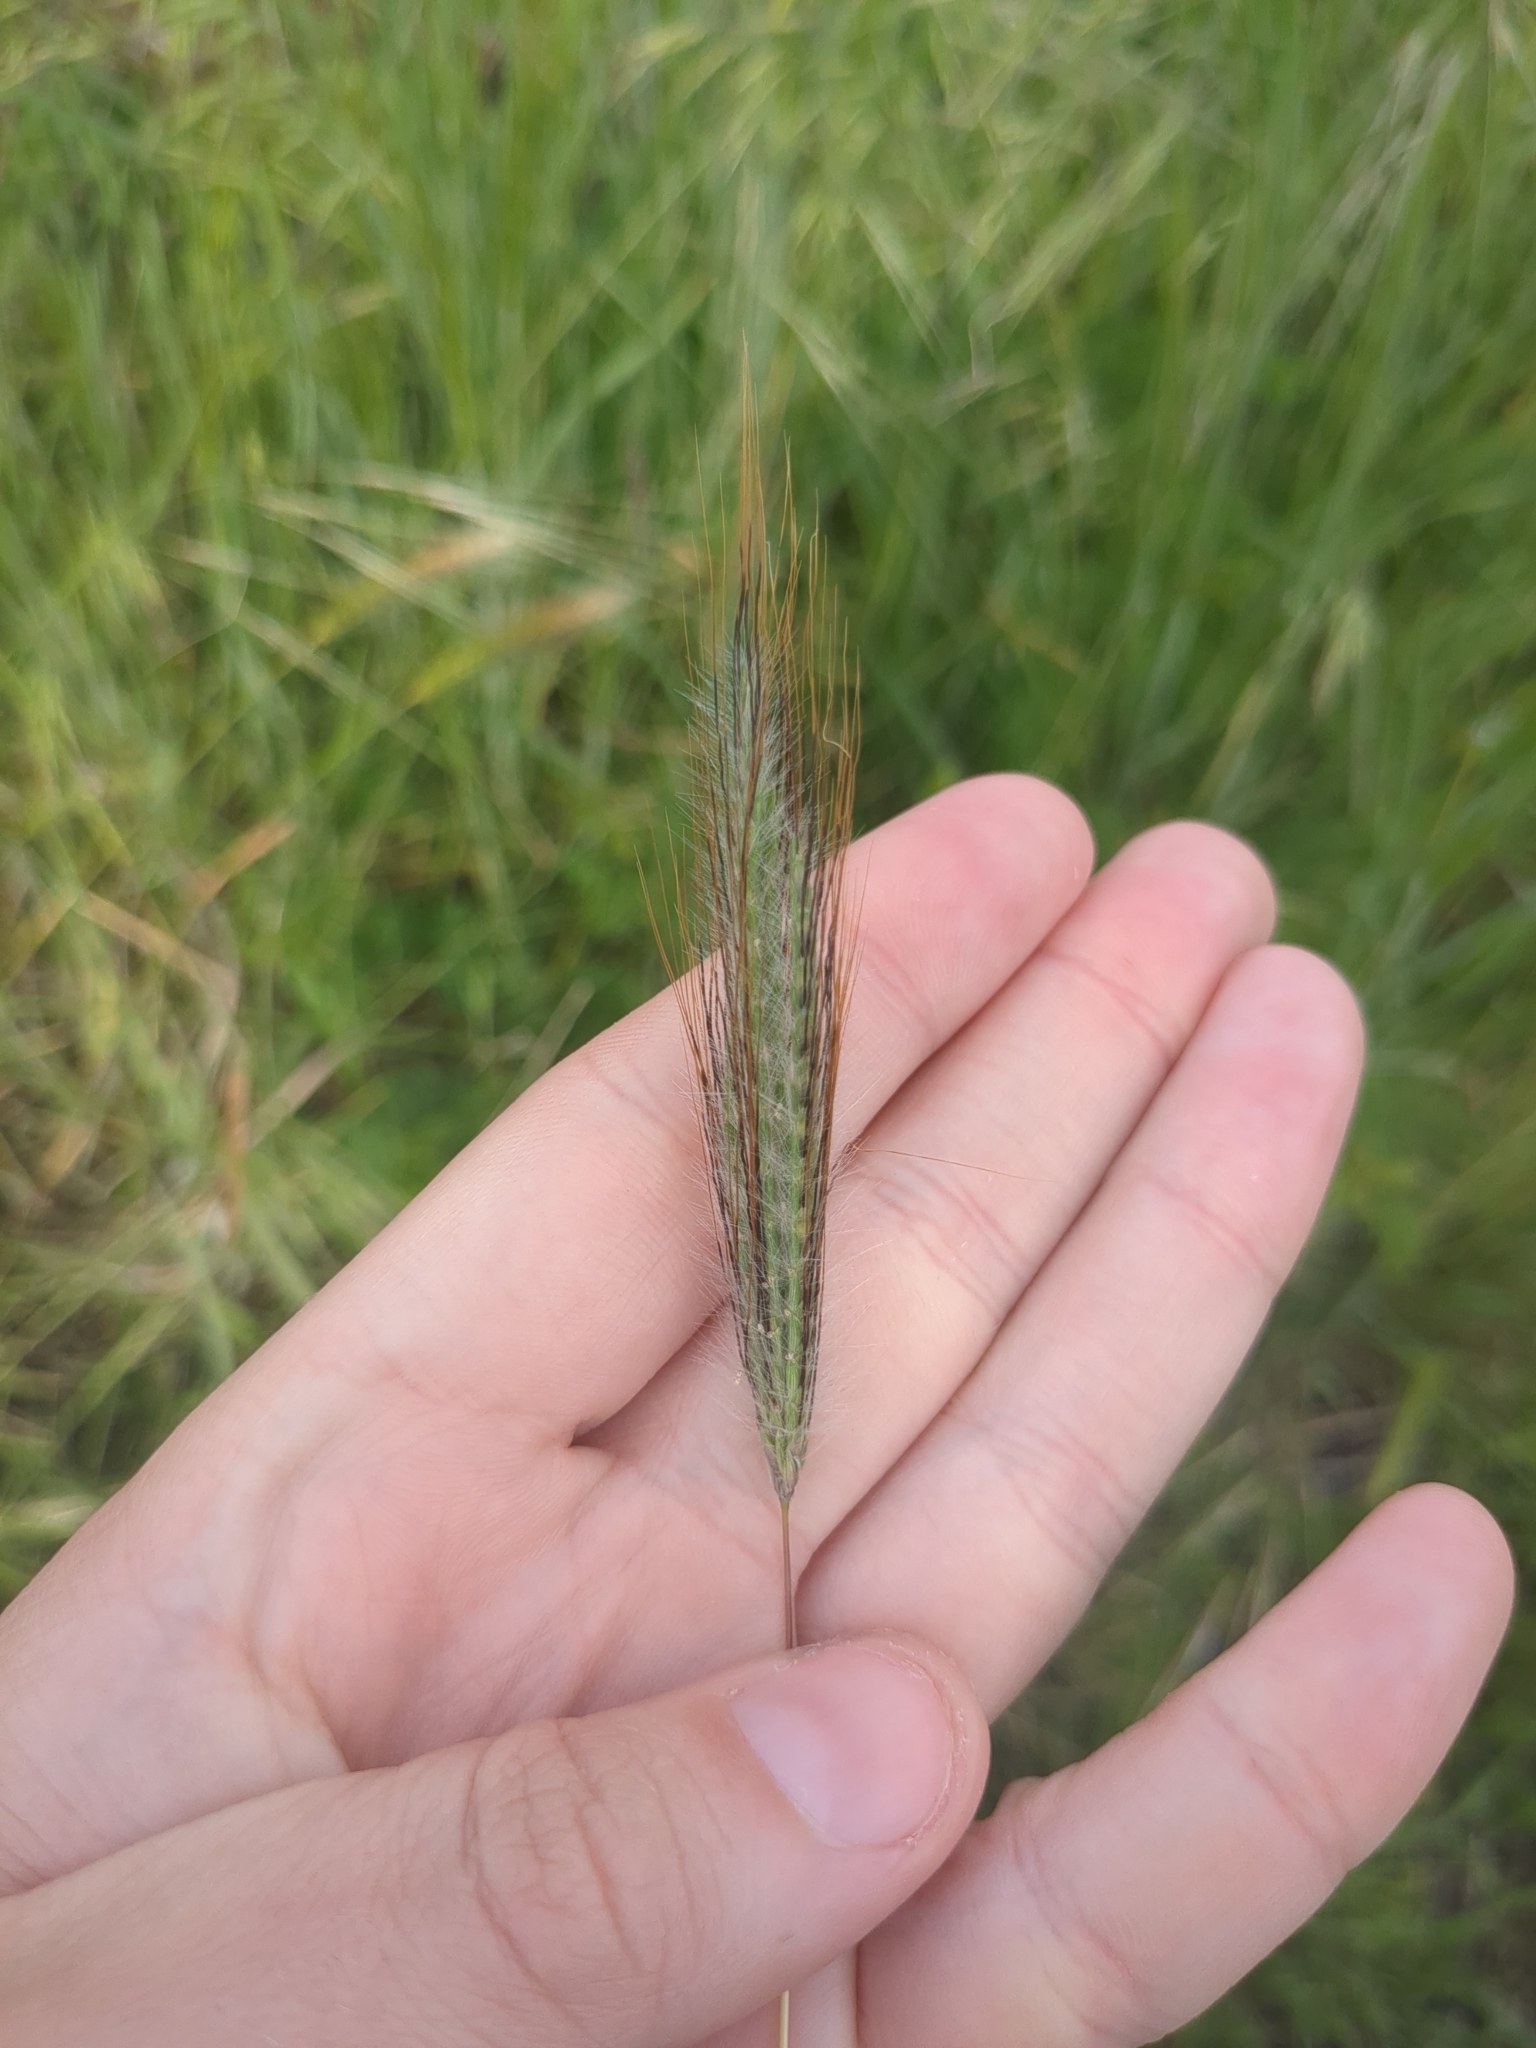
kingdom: Plantae
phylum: Tracheophyta
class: Liliopsida
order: Poales
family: Poaceae
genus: Dichanthium
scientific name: Dichanthium sericeum
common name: Silky bluestem
